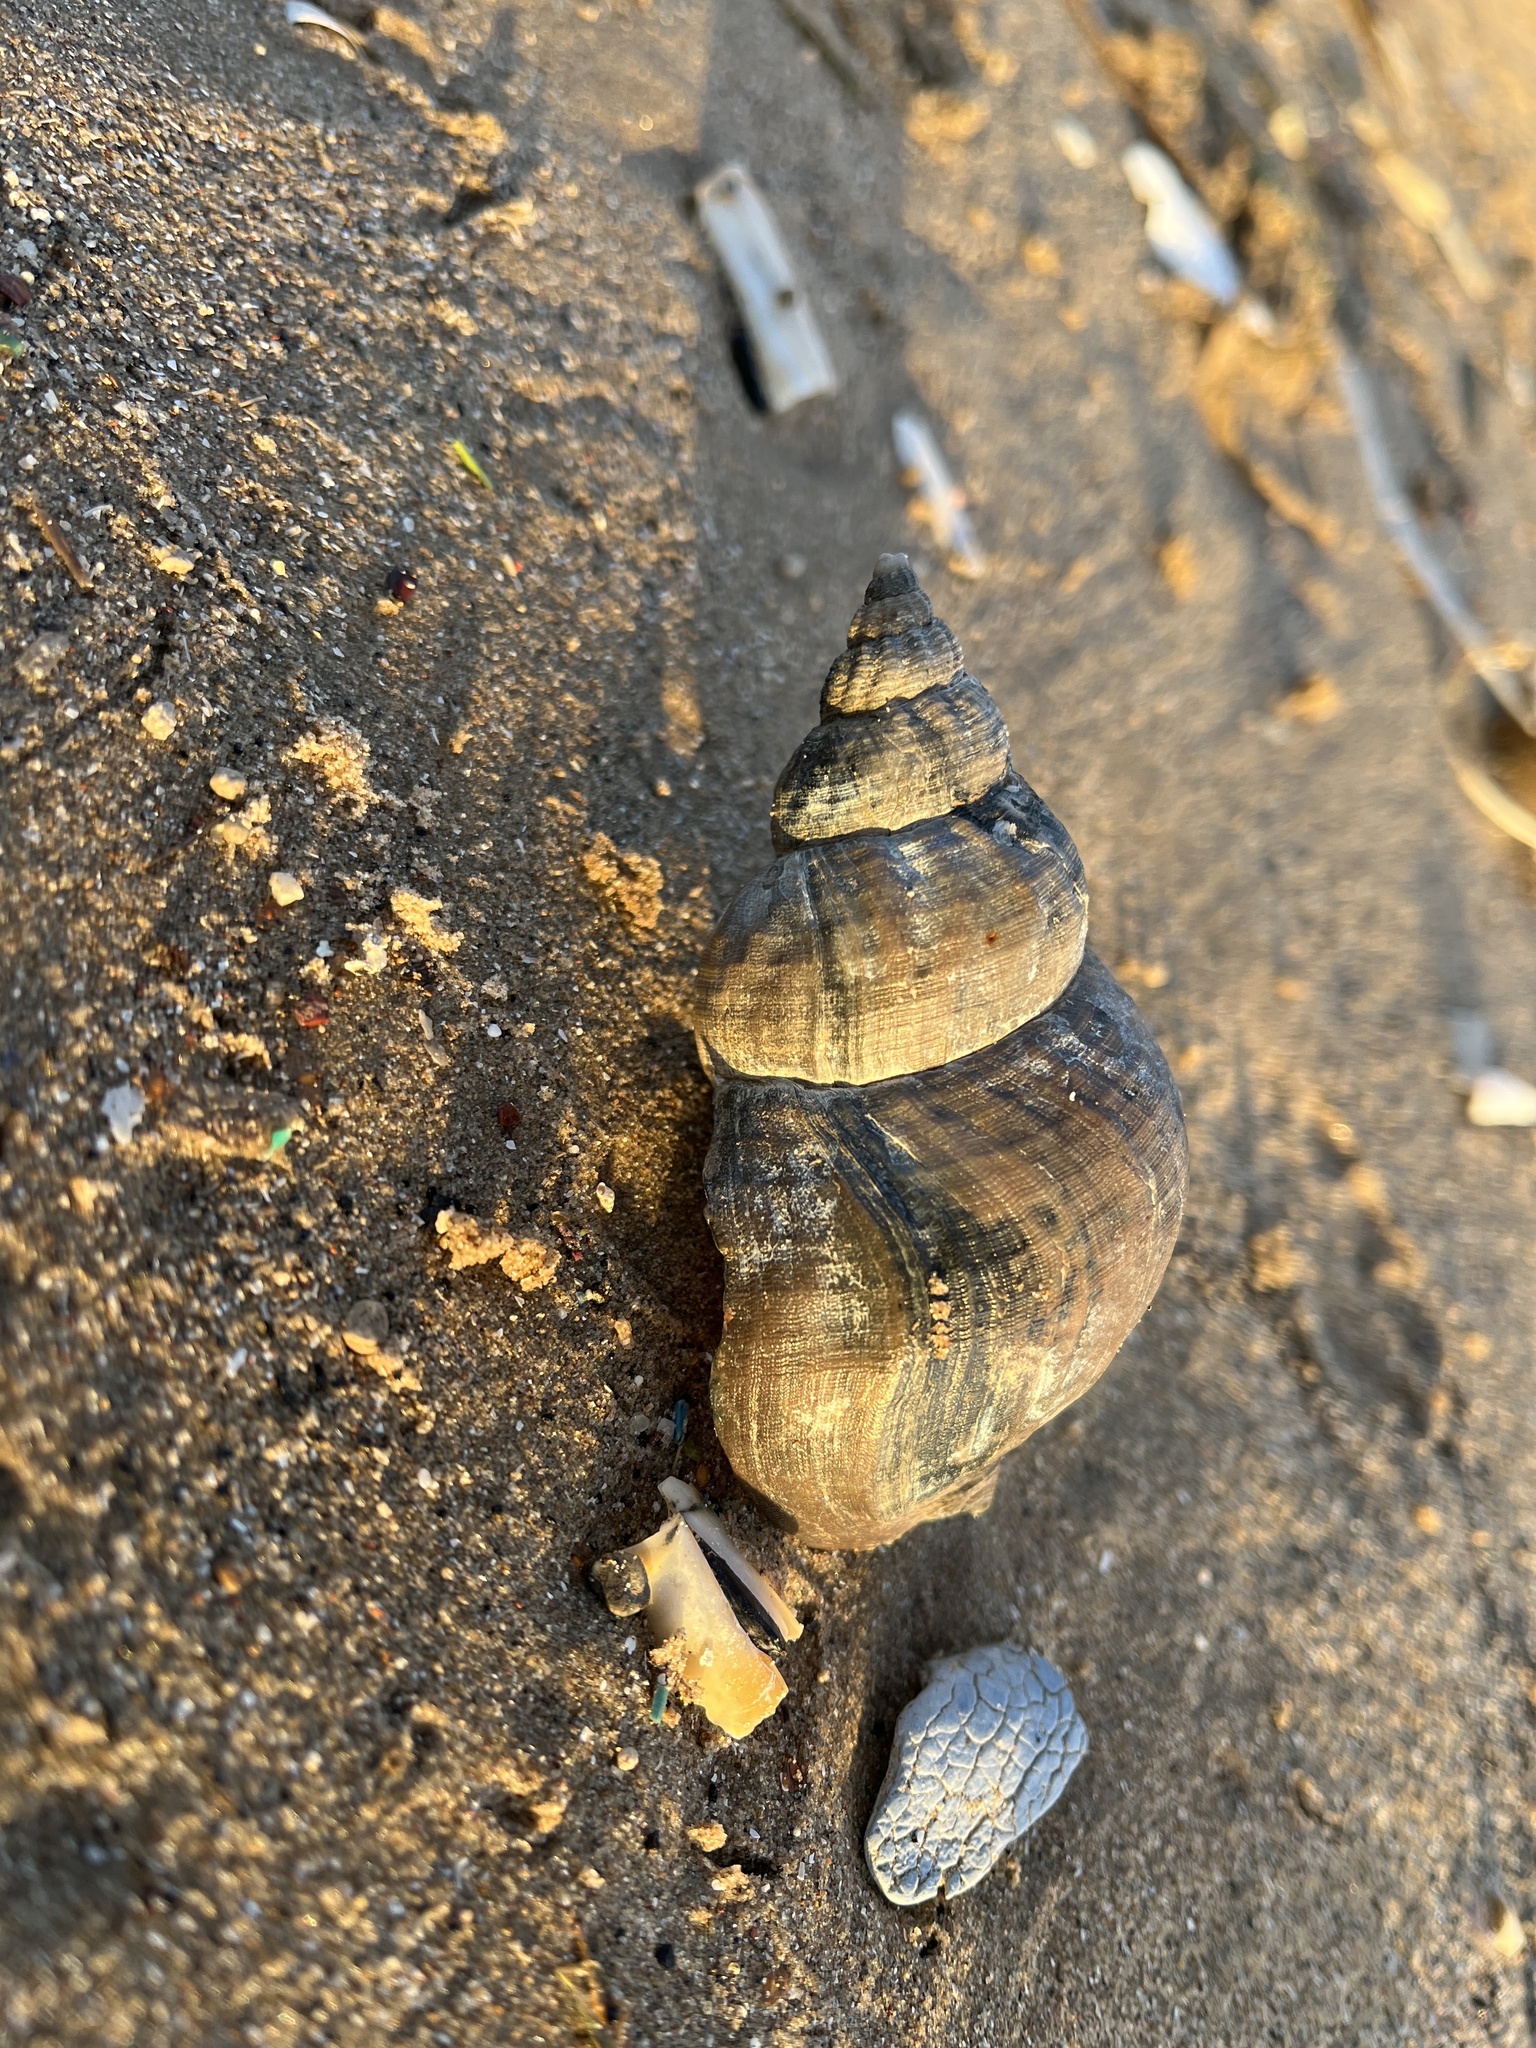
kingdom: Animalia
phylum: Mollusca
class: Gastropoda
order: Neogastropoda
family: Buccinidae
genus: Buccinum
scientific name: Buccinum undatum
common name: Common whelk
